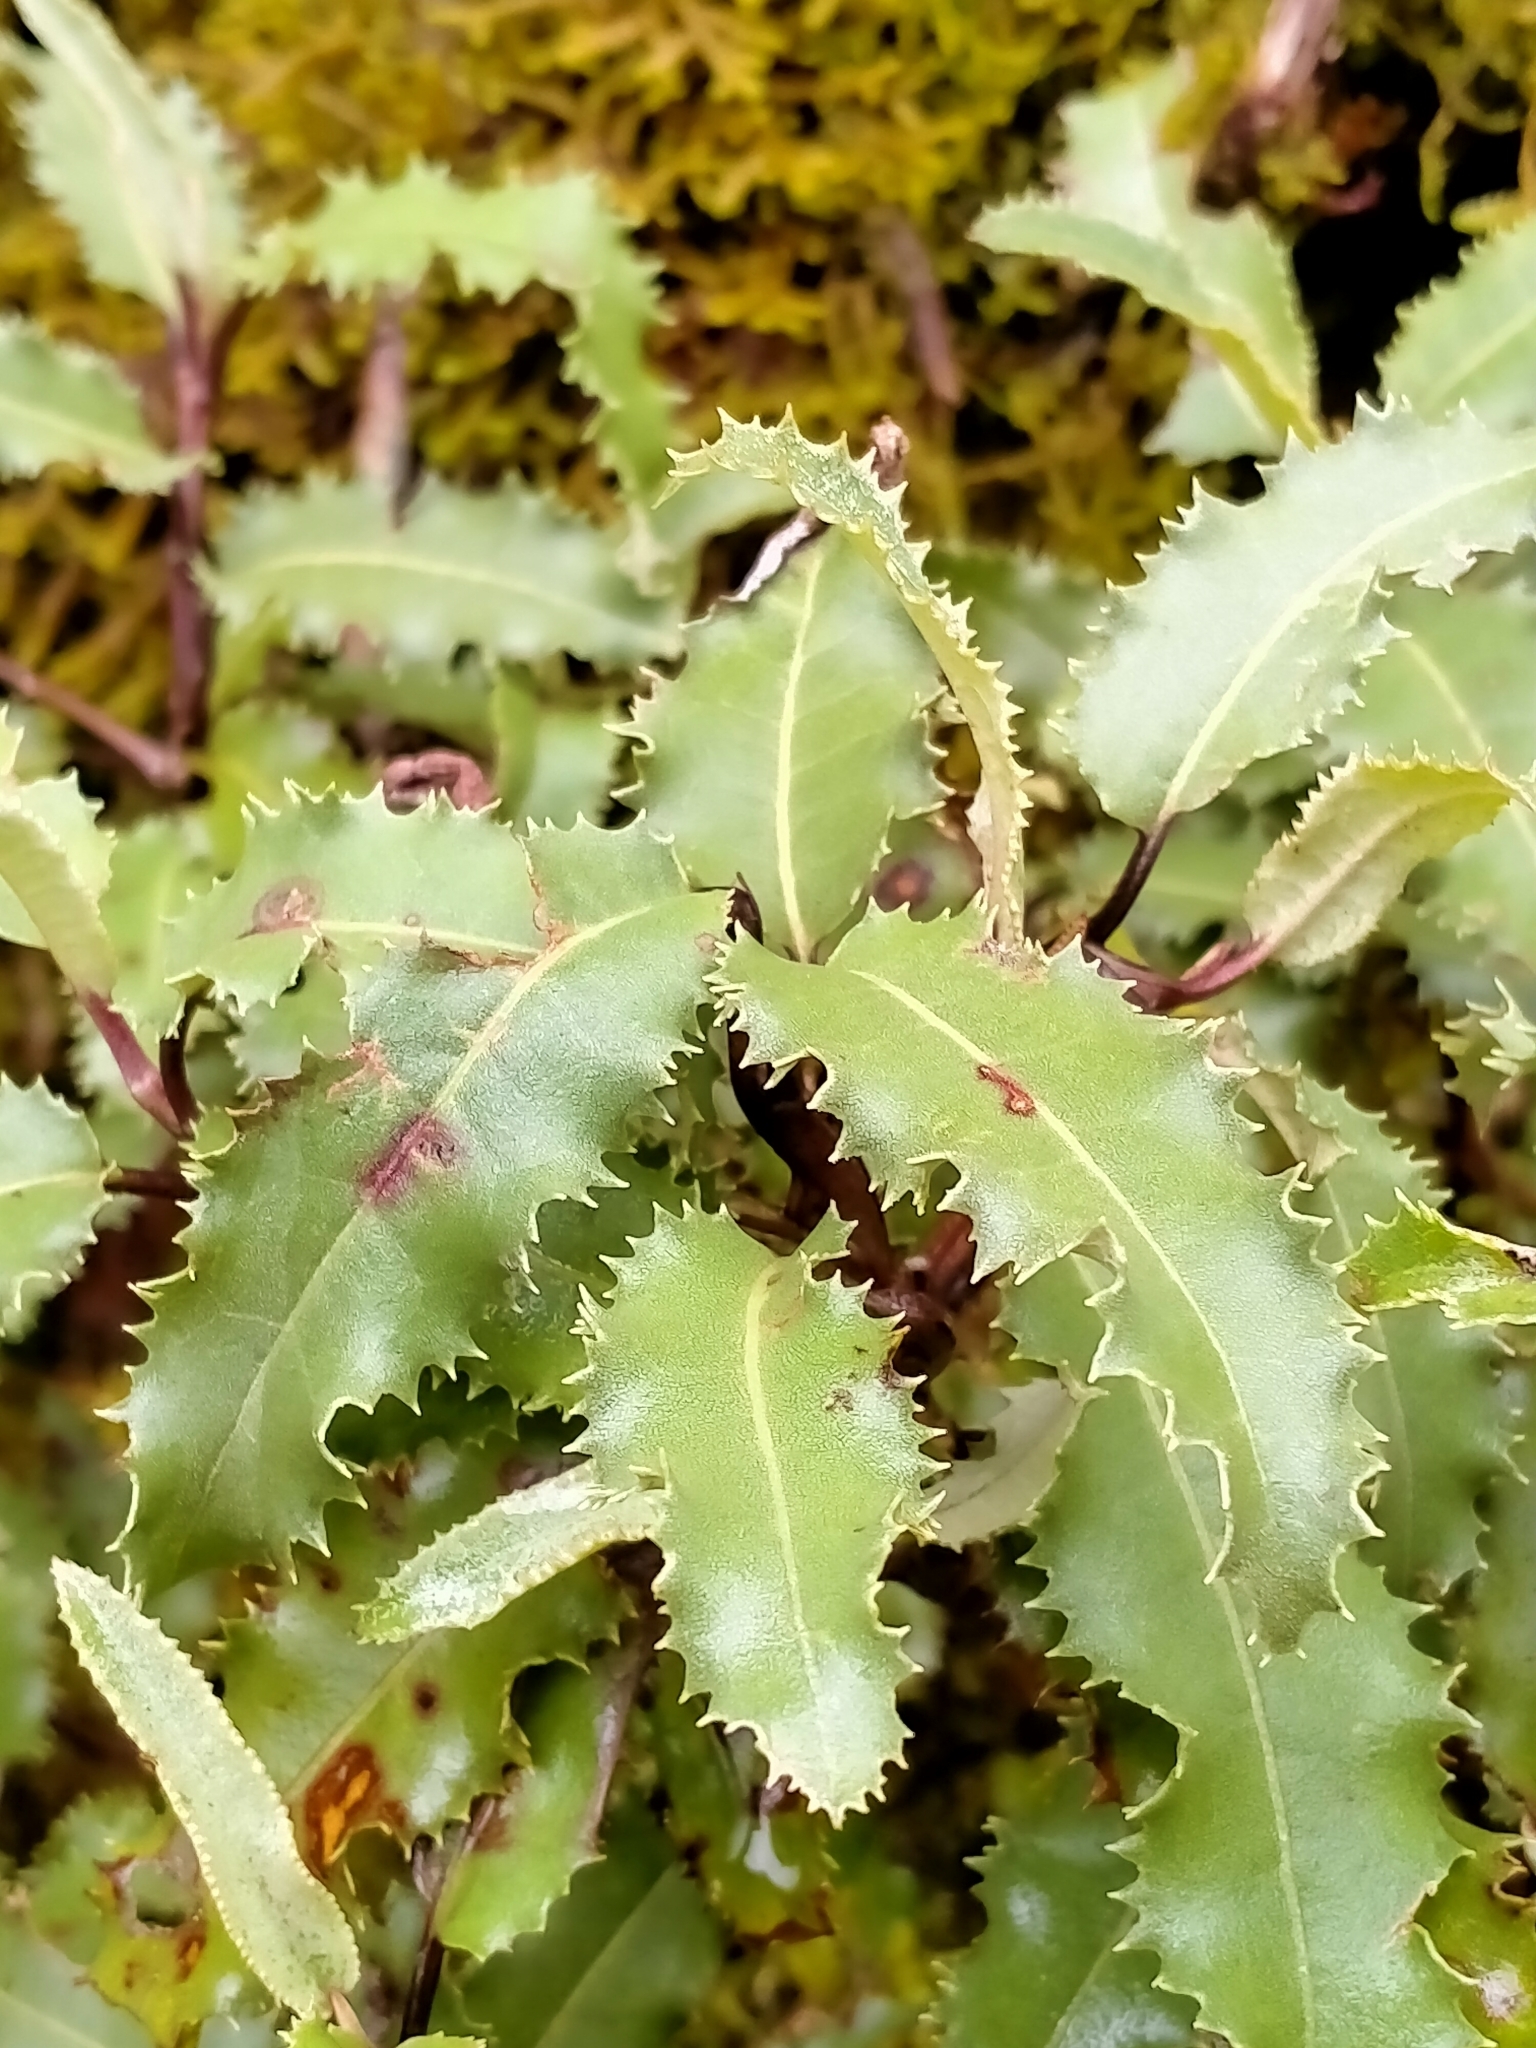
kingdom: Plantae
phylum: Tracheophyta
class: Magnoliopsida
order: Asterales
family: Asteraceae
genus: Olearia
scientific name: Olearia ilicifolia
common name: Maori-holly
